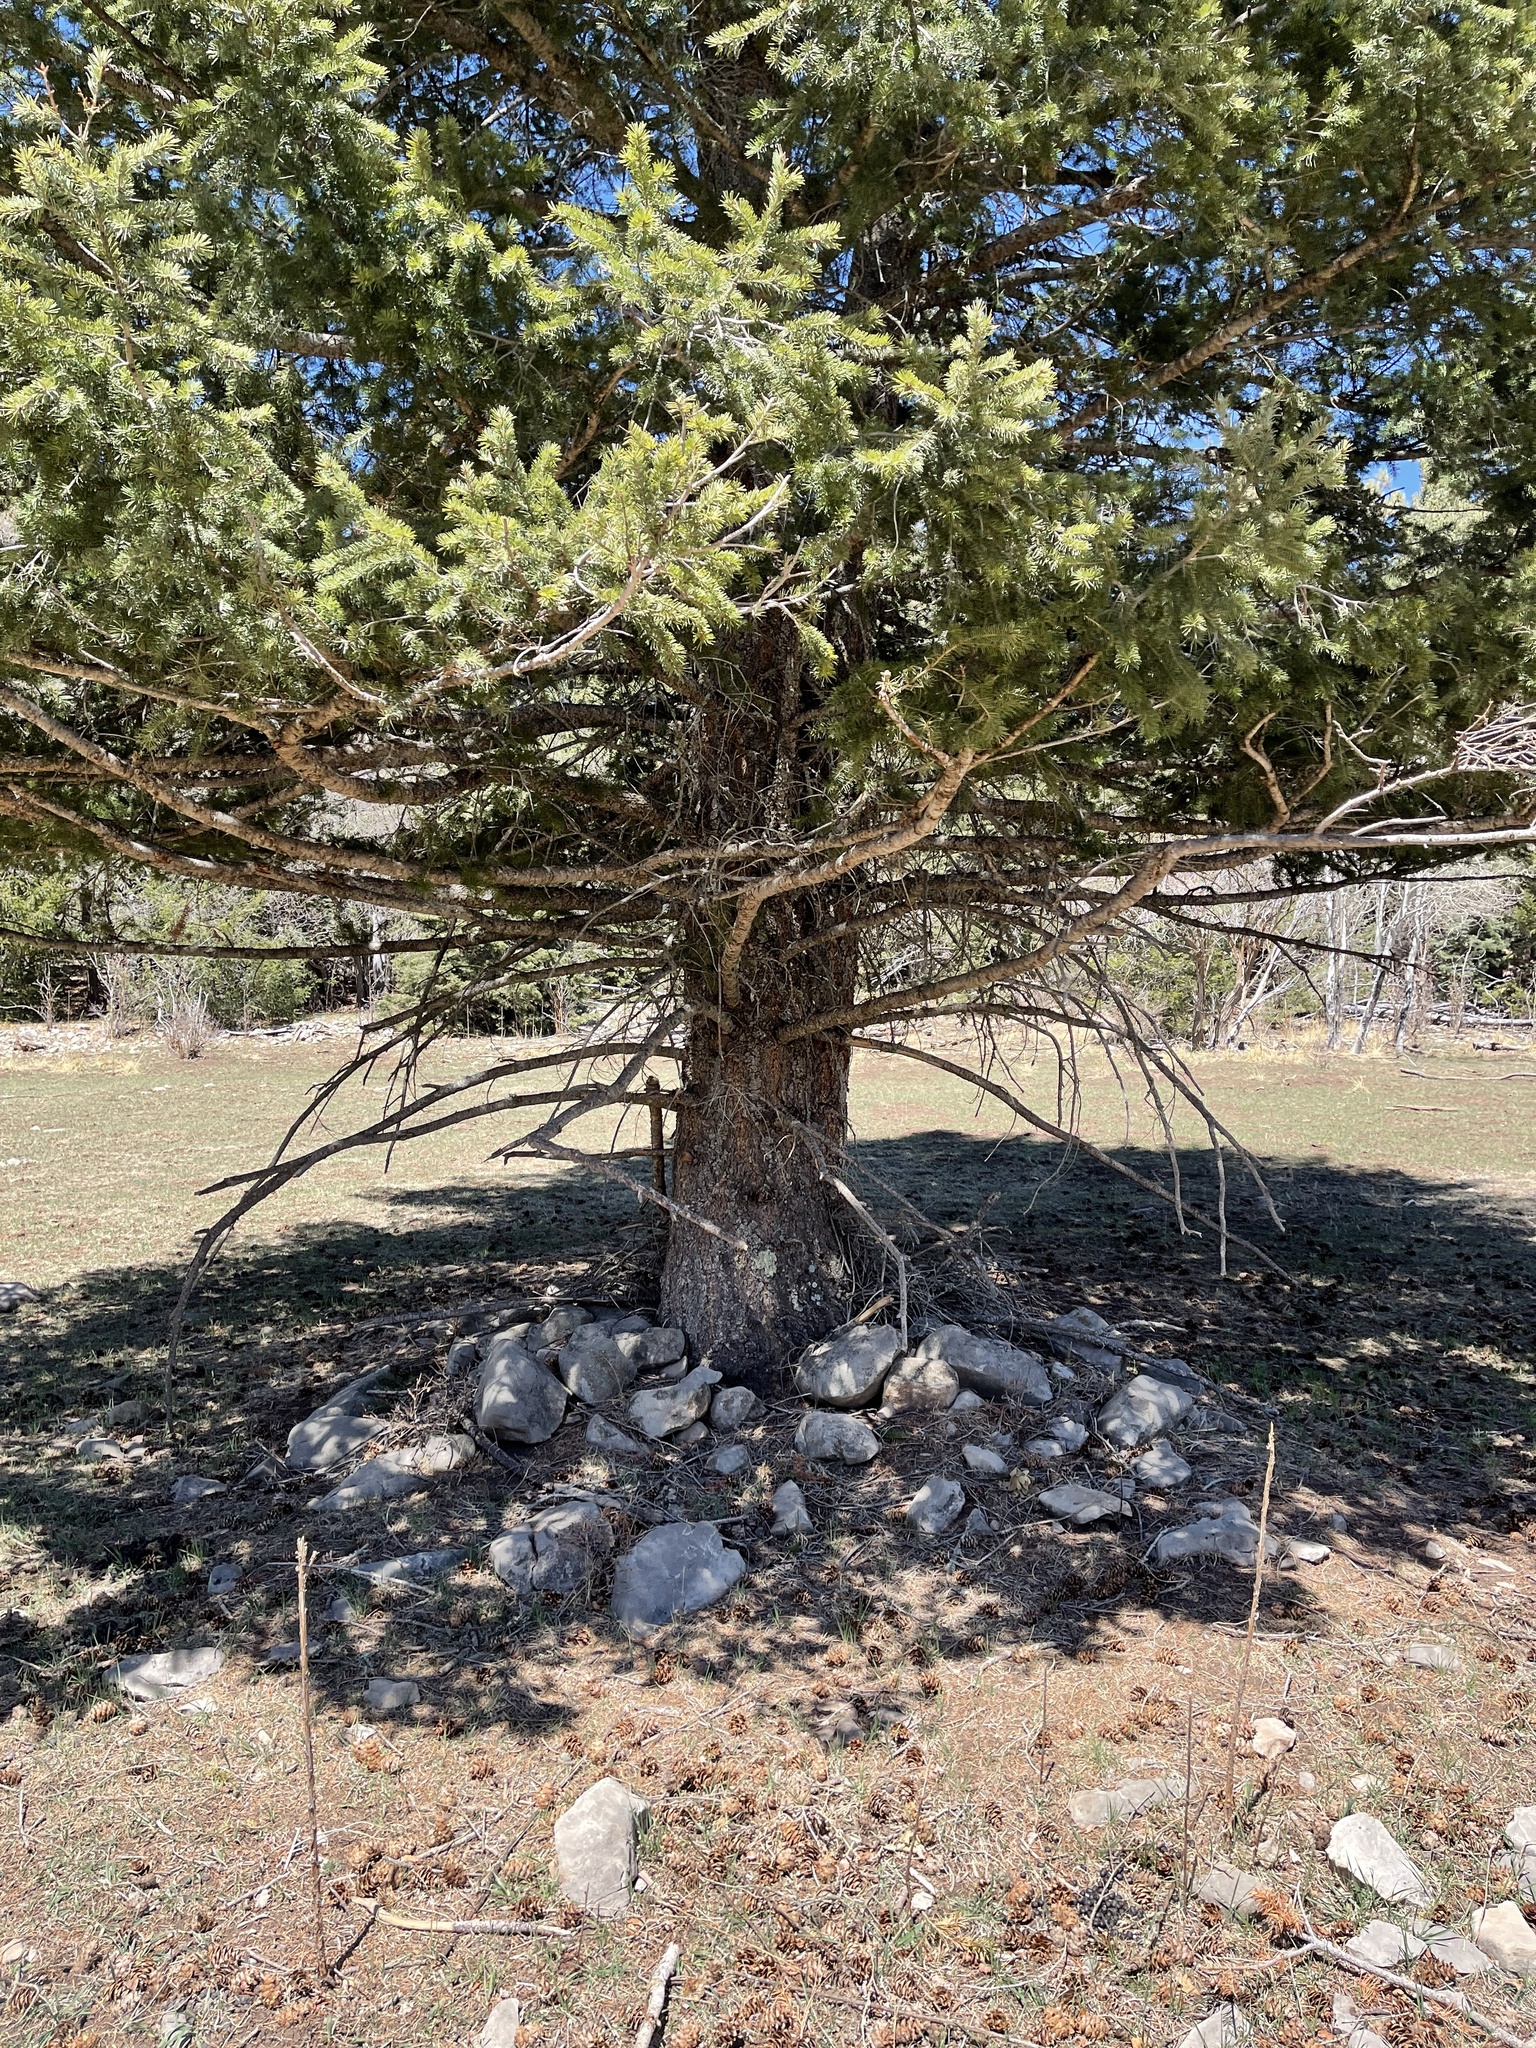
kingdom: Plantae
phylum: Tracheophyta
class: Pinopsida
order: Pinales
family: Pinaceae
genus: Pseudotsuga
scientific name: Pseudotsuga menziesii
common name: Douglas fir
